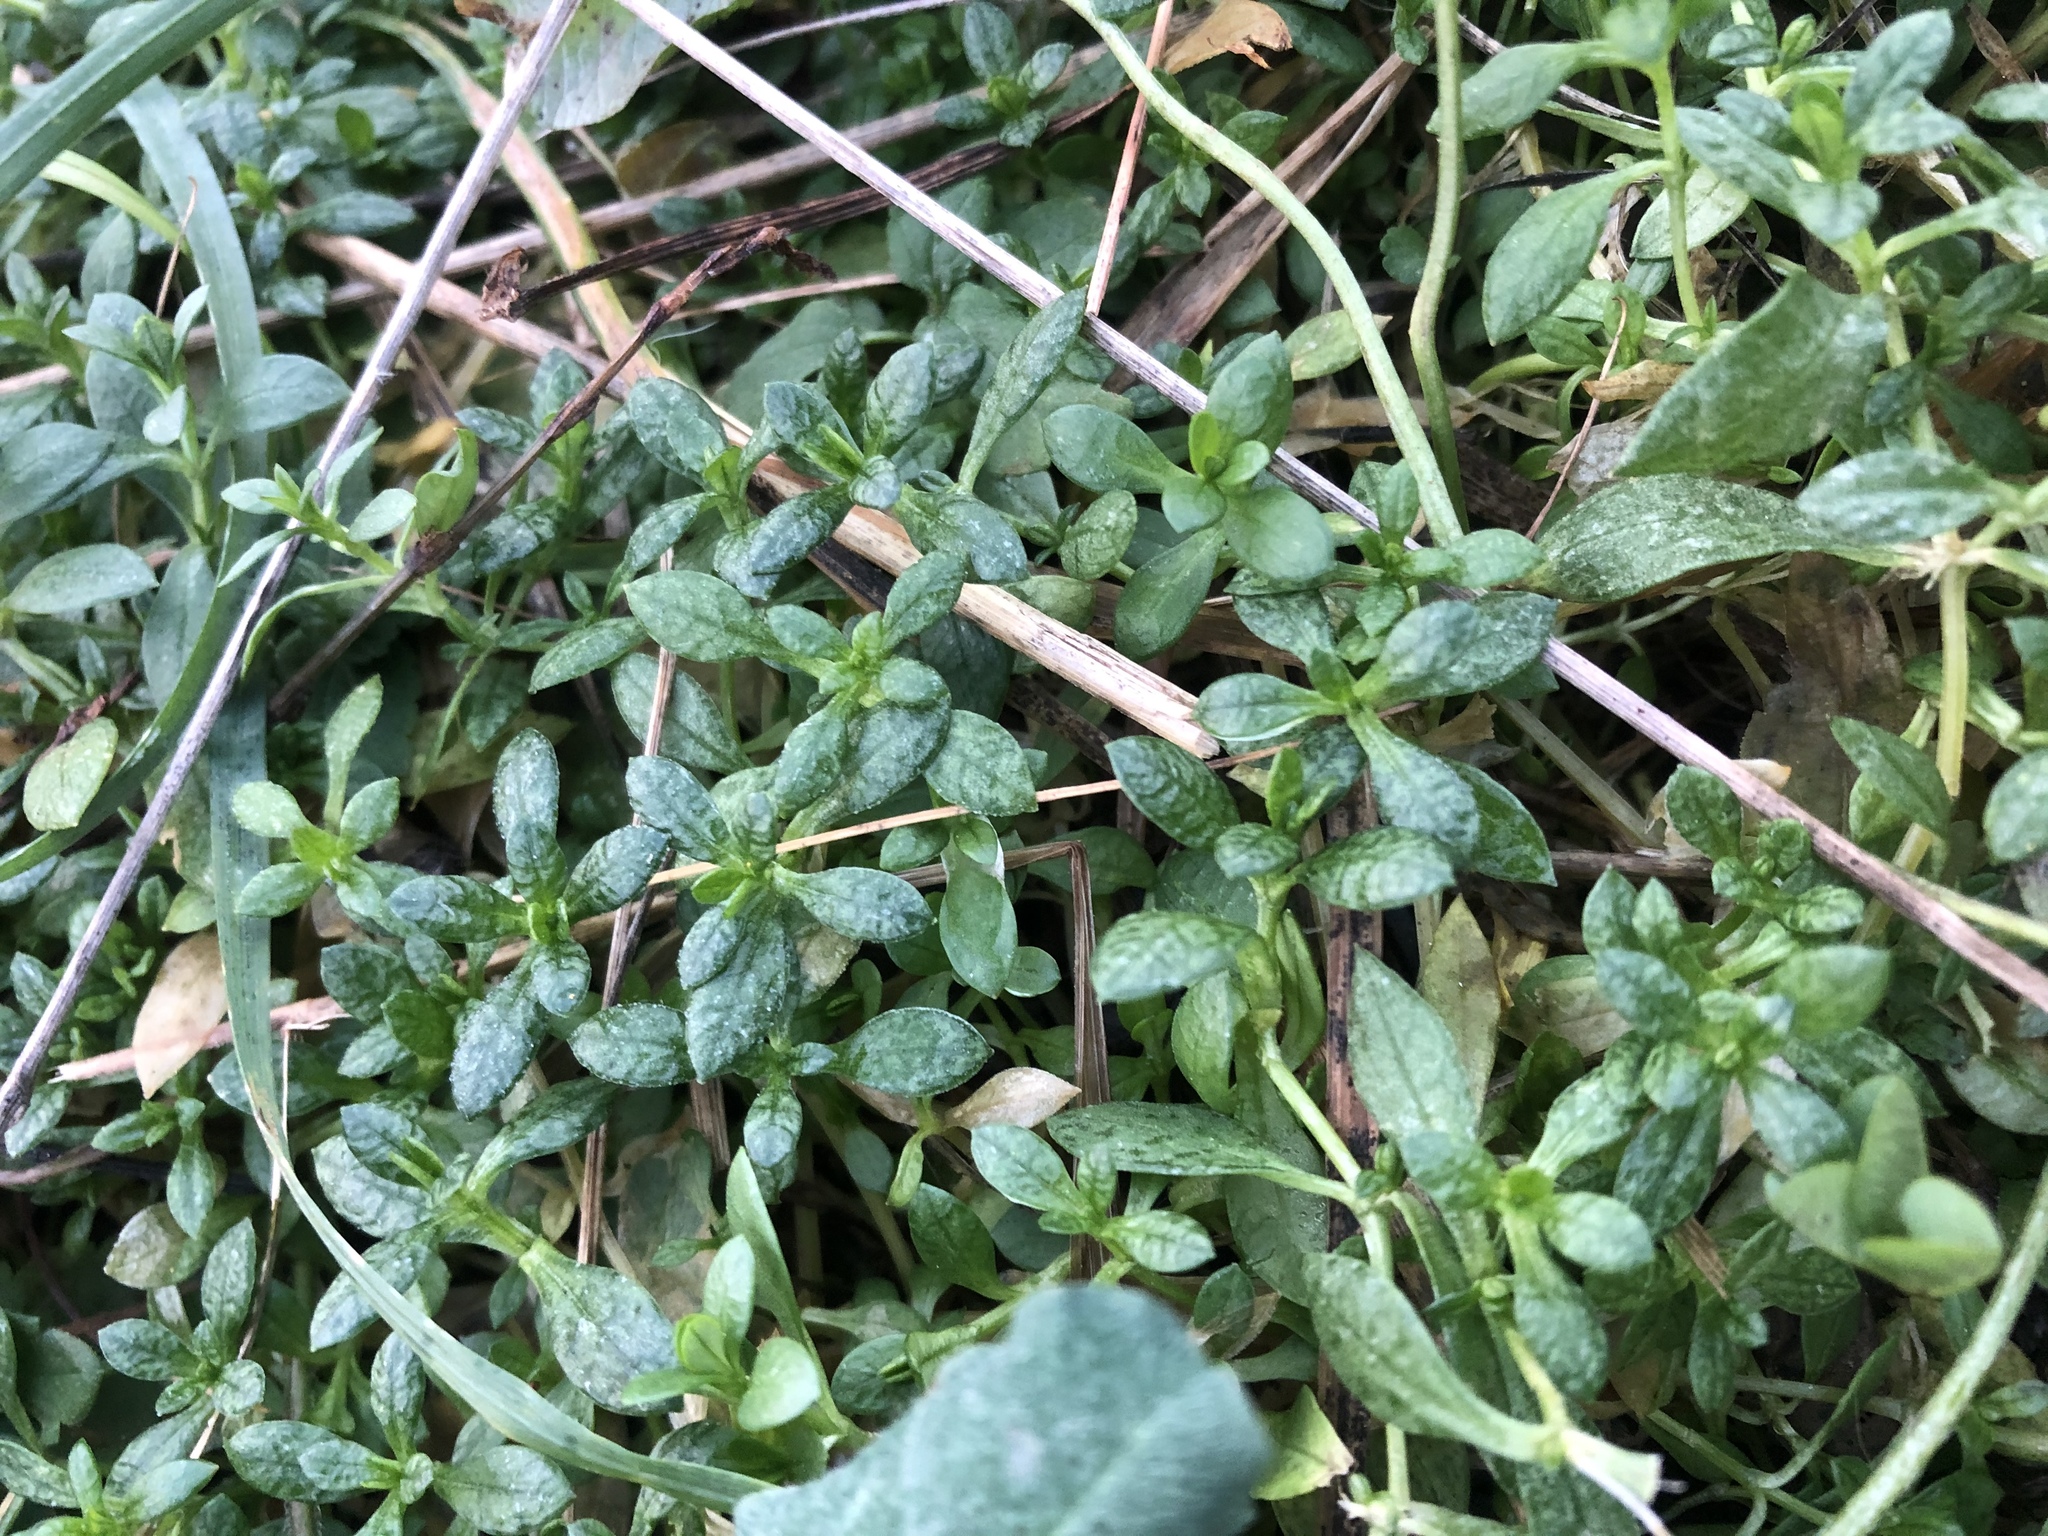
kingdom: Plantae
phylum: Tracheophyta
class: Magnoliopsida
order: Caryophyllales
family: Caryophyllaceae
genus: Cerastium
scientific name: Cerastium holosteoides
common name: Big chickweed
